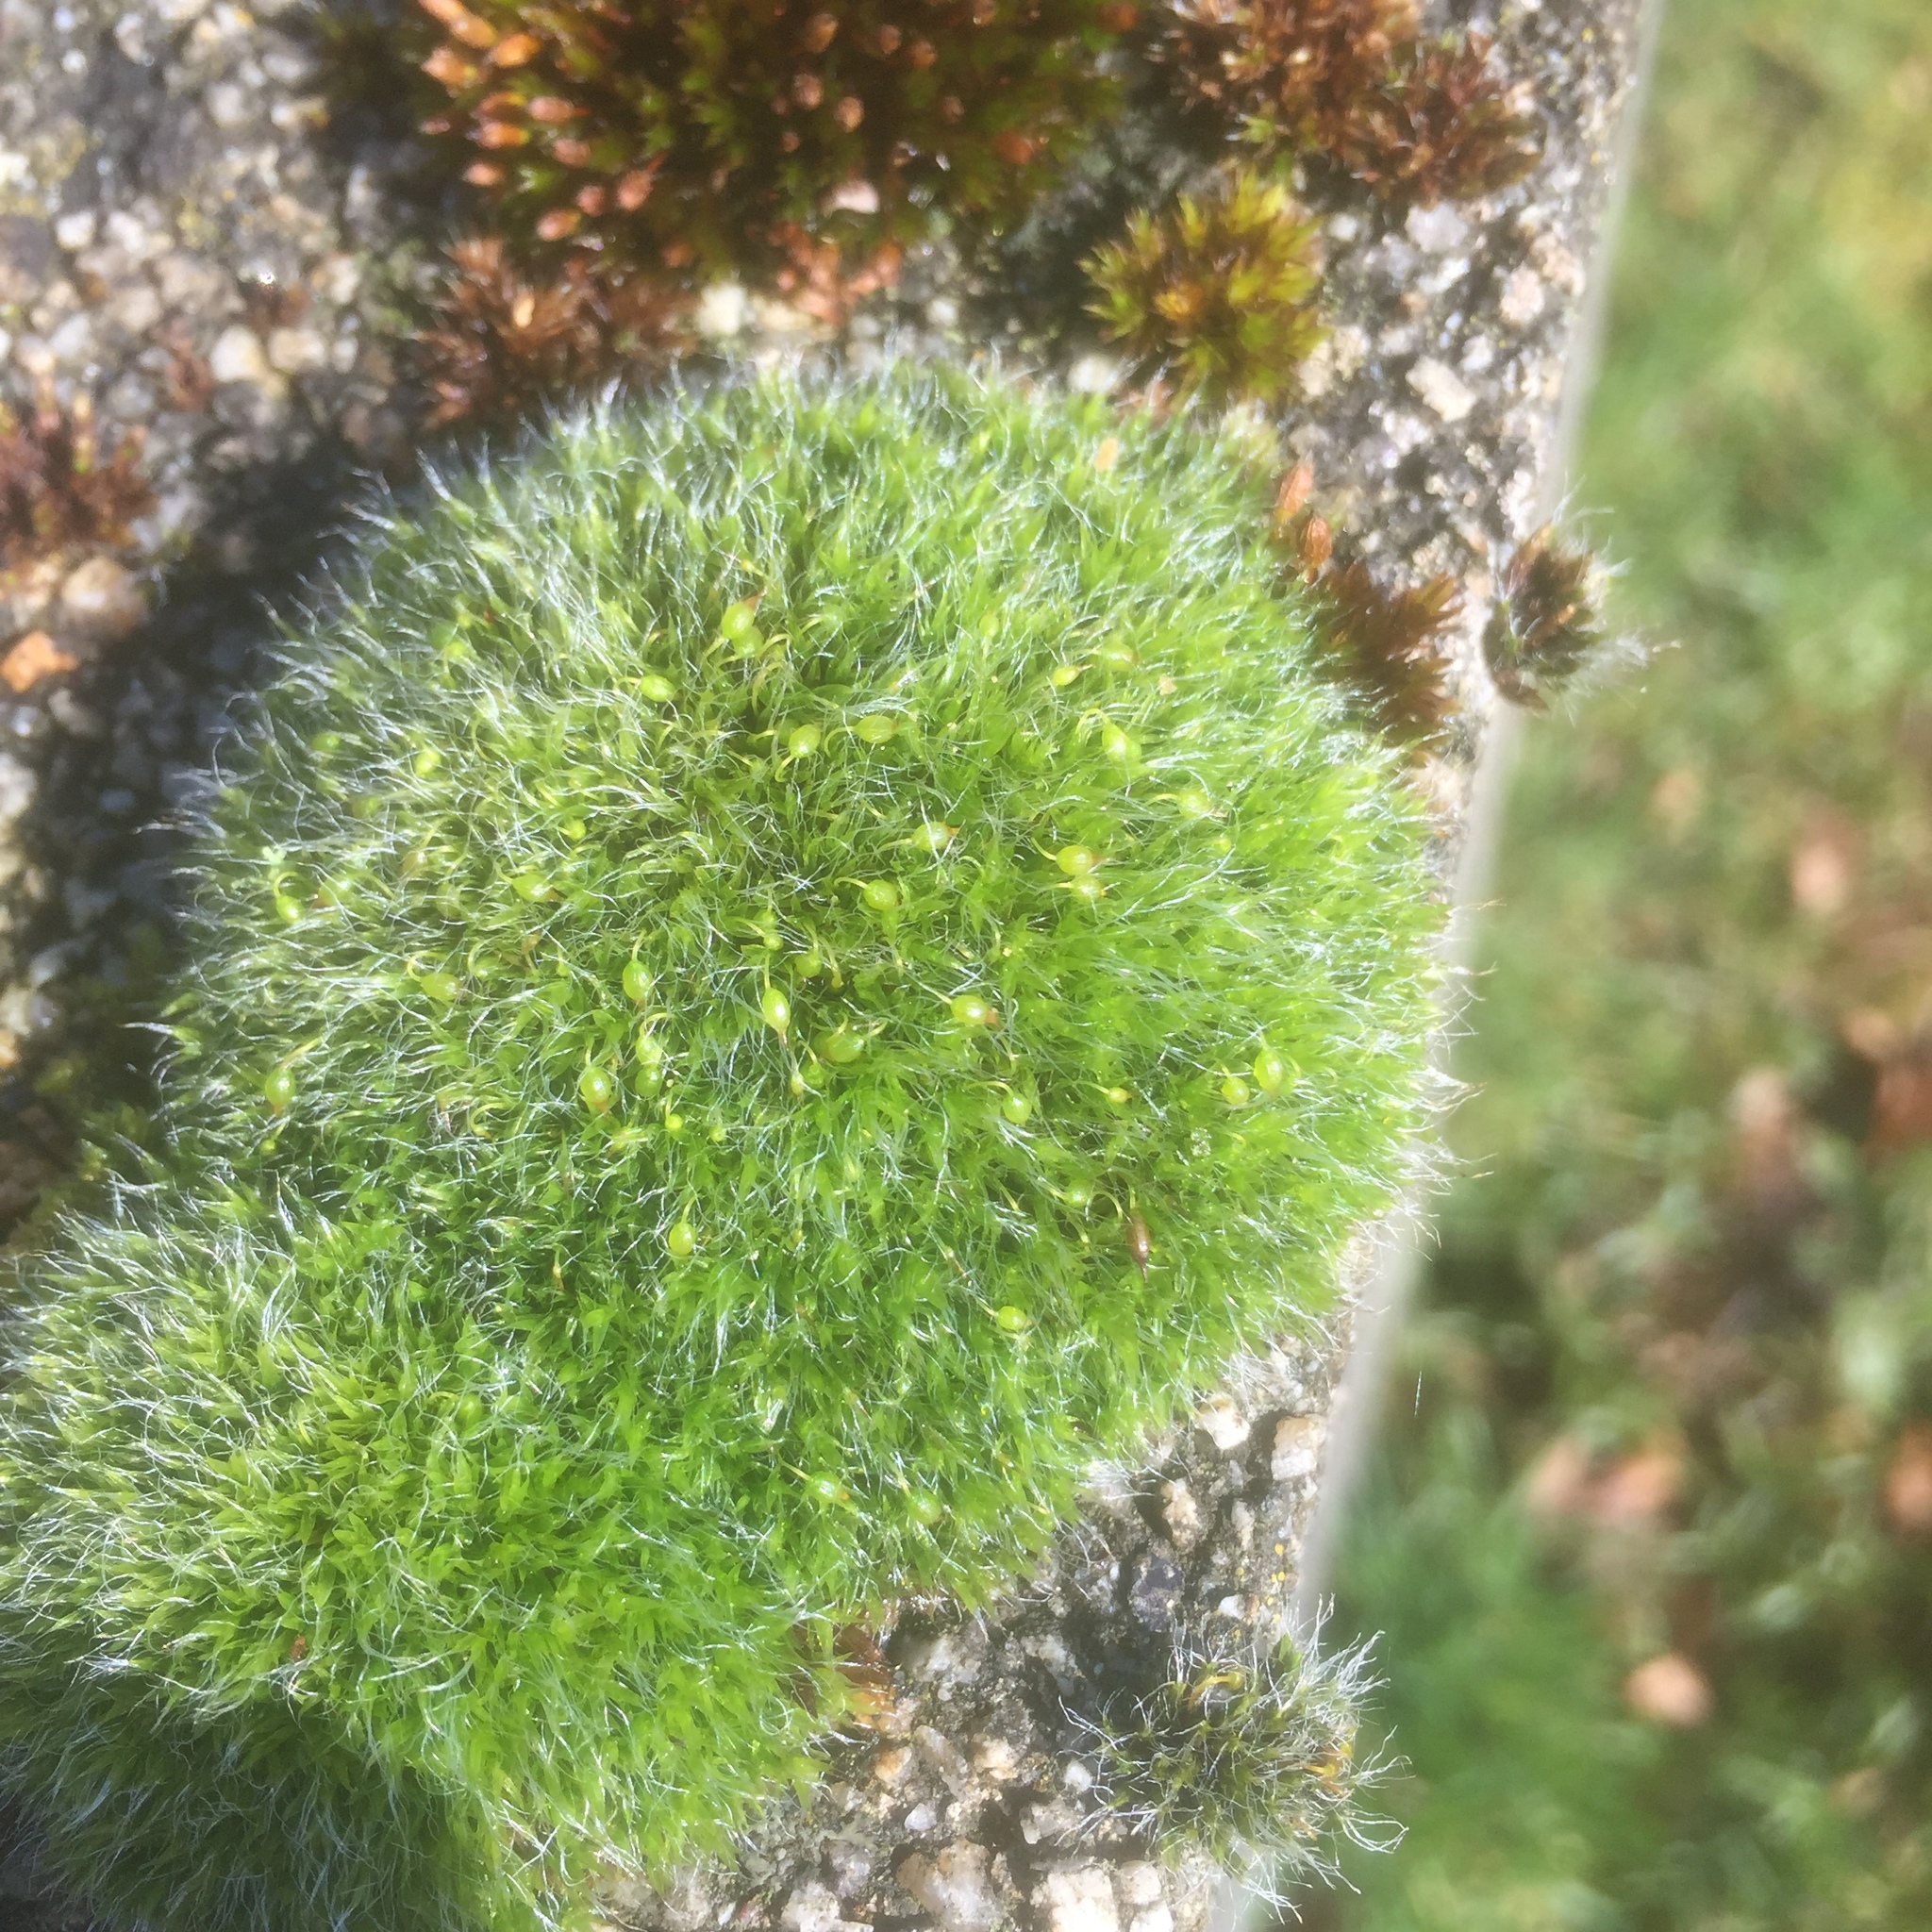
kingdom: Plantae
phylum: Bryophyta
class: Bryopsida
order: Grimmiales
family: Grimmiaceae
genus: Grimmia
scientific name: Grimmia pulvinata
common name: Grey-cushioned grimmia
